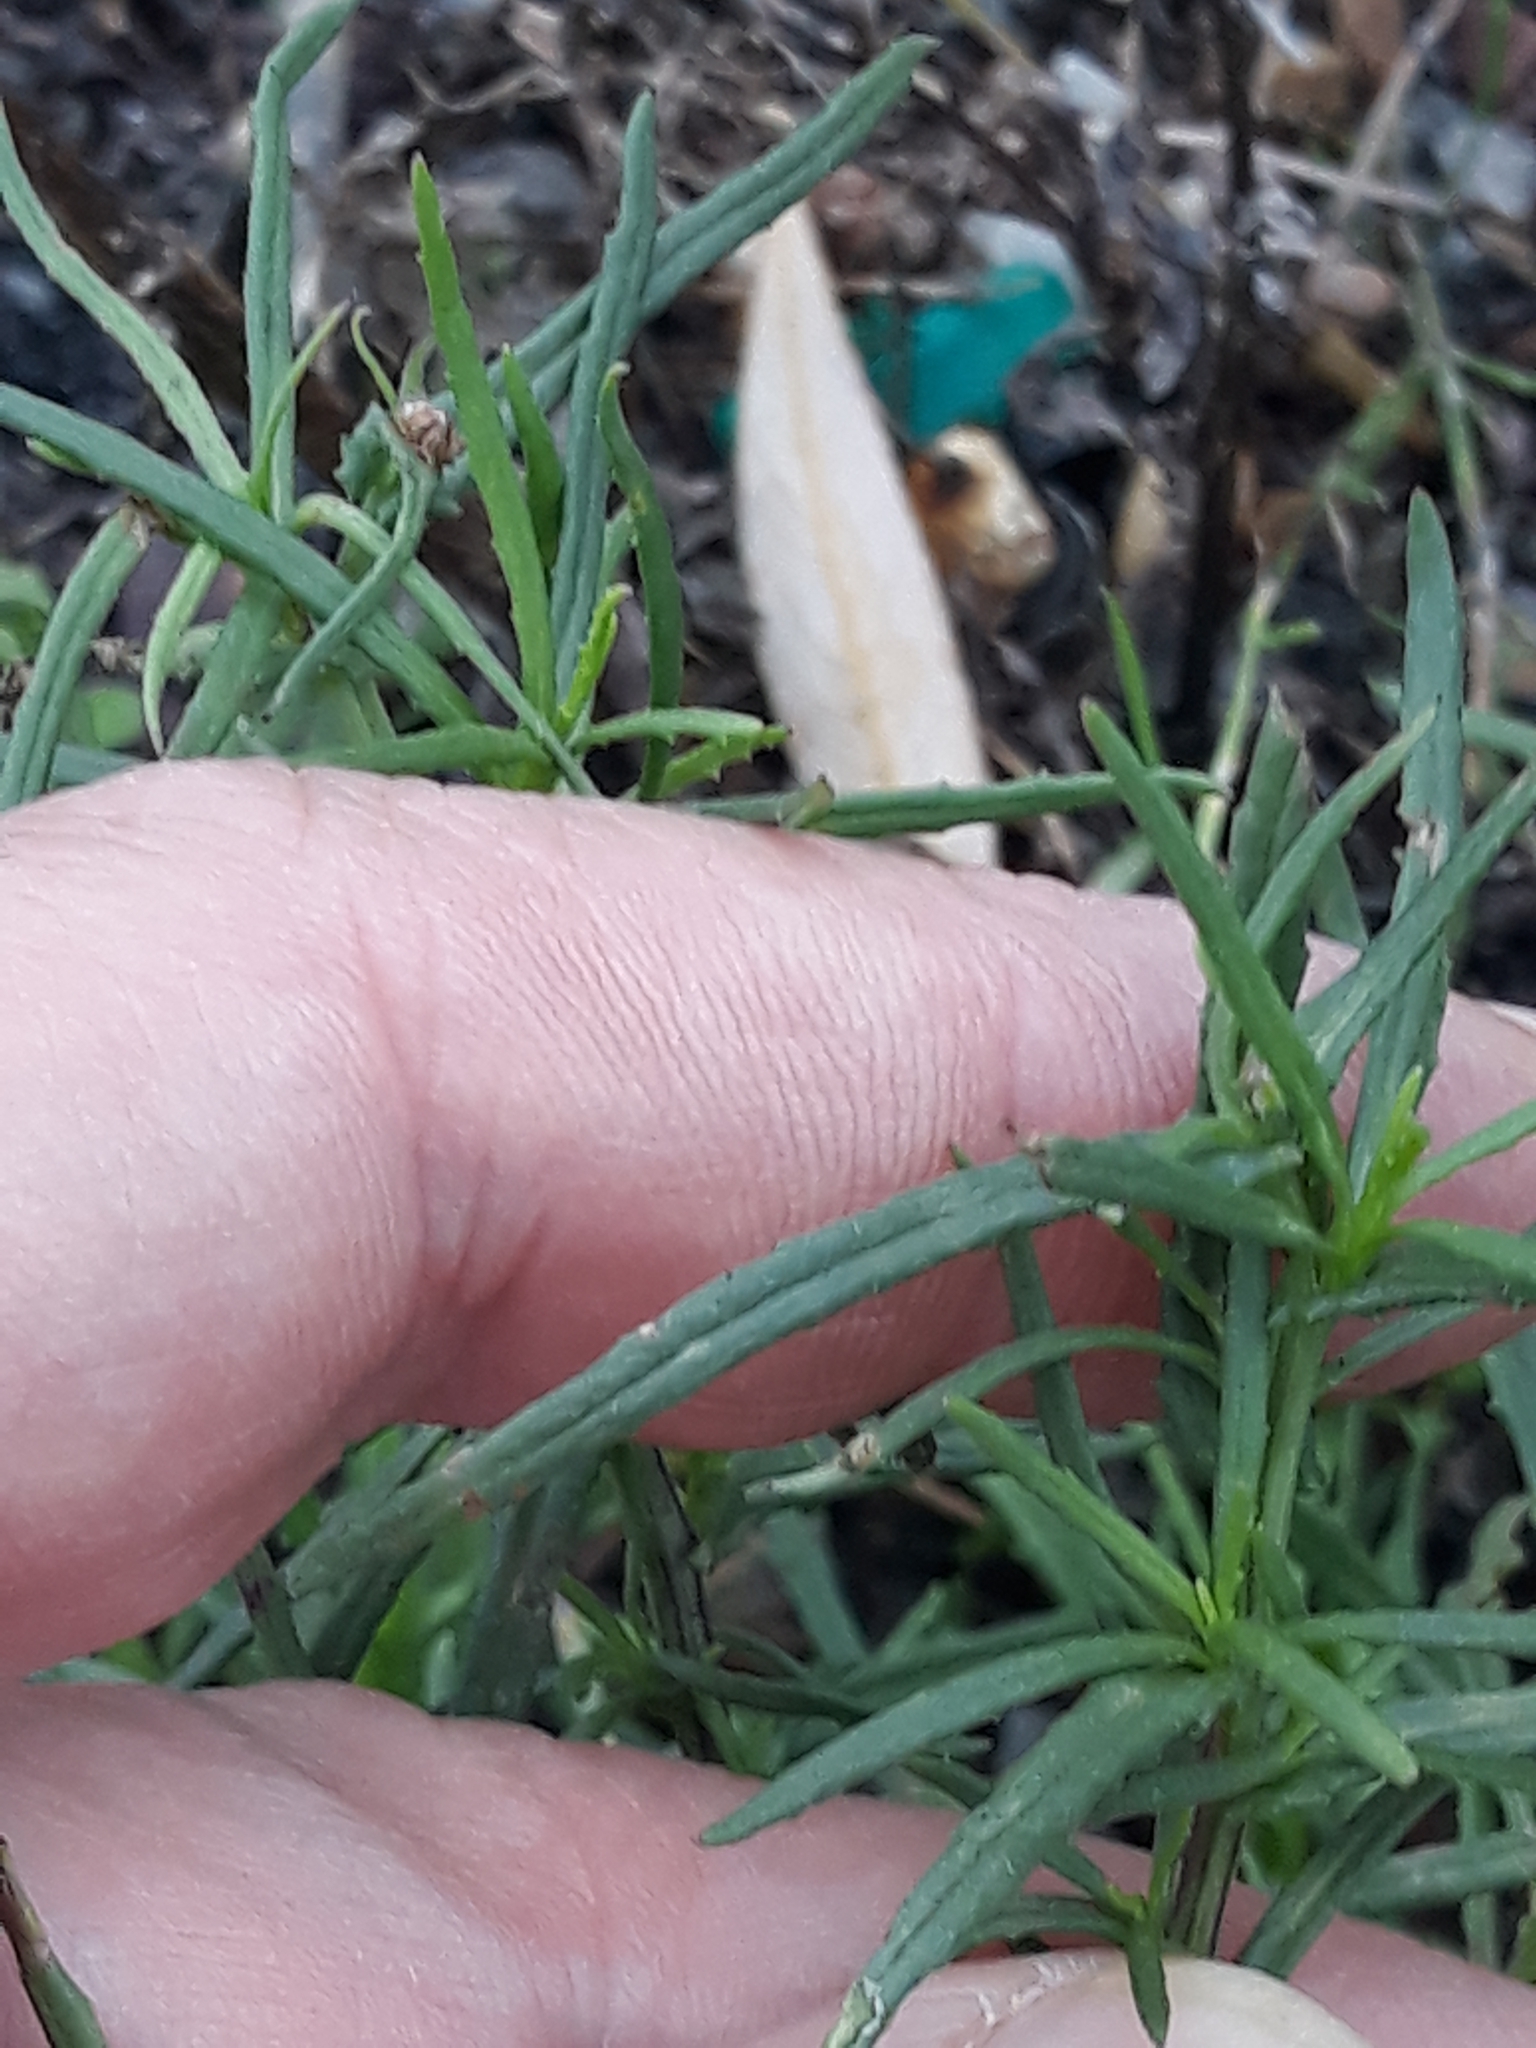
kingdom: Plantae
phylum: Tracheophyta
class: Magnoliopsida
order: Asterales
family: Asteraceae
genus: Senecio
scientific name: Senecio inaequidens
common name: Narrow-leaved ragwort
